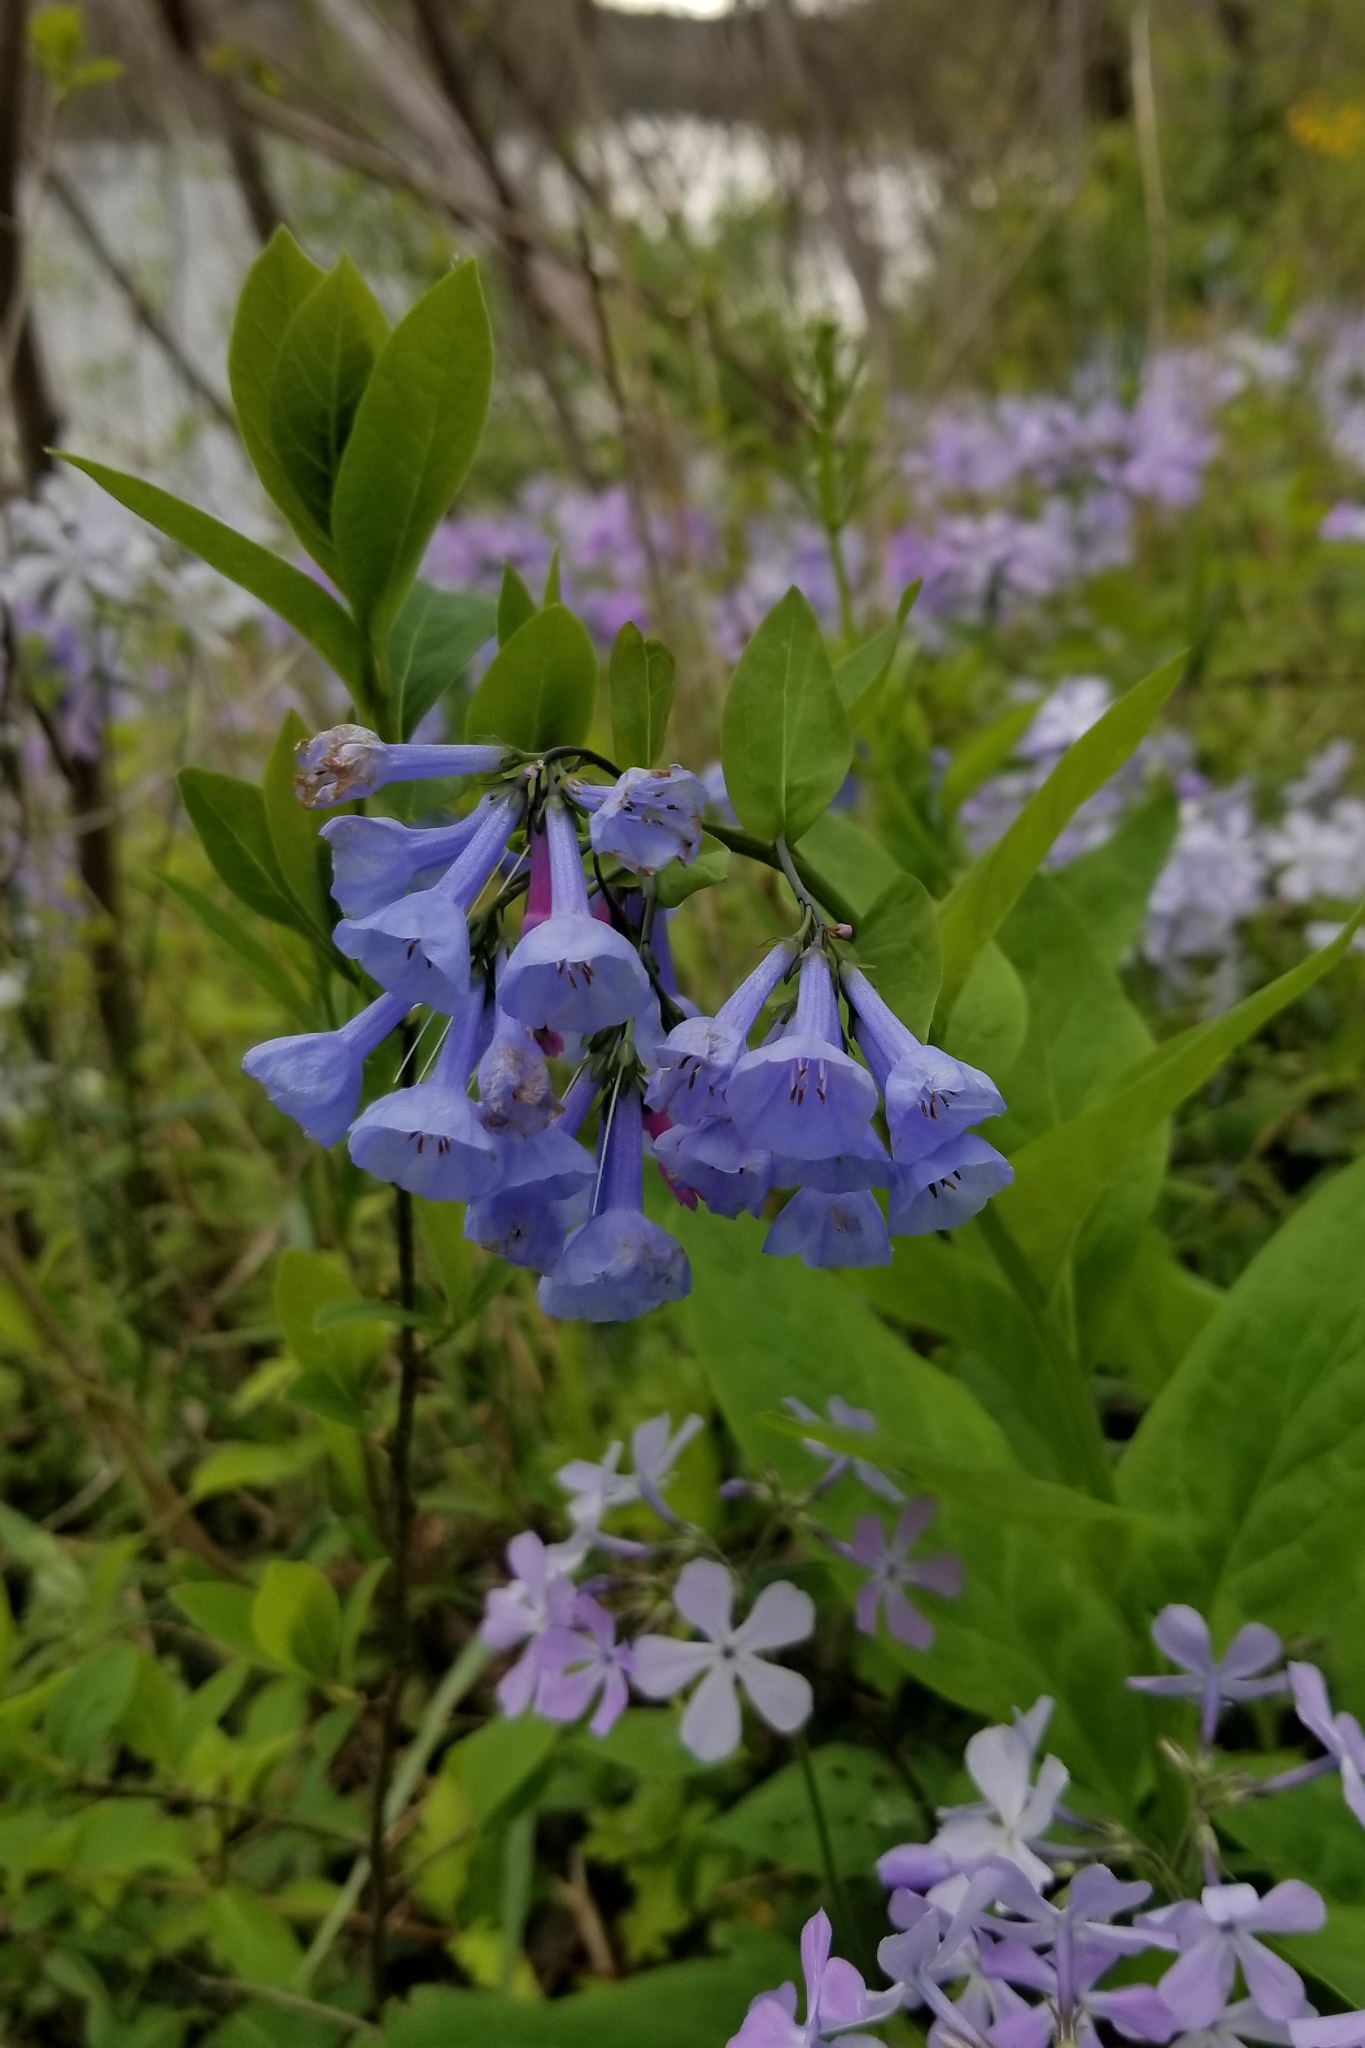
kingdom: Plantae
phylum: Tracheophyta
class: Magnoliopsida
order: Boraginales
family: Boraginaceae
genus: Mertensia
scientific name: Mertensia virginica
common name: Virginia bluebells
